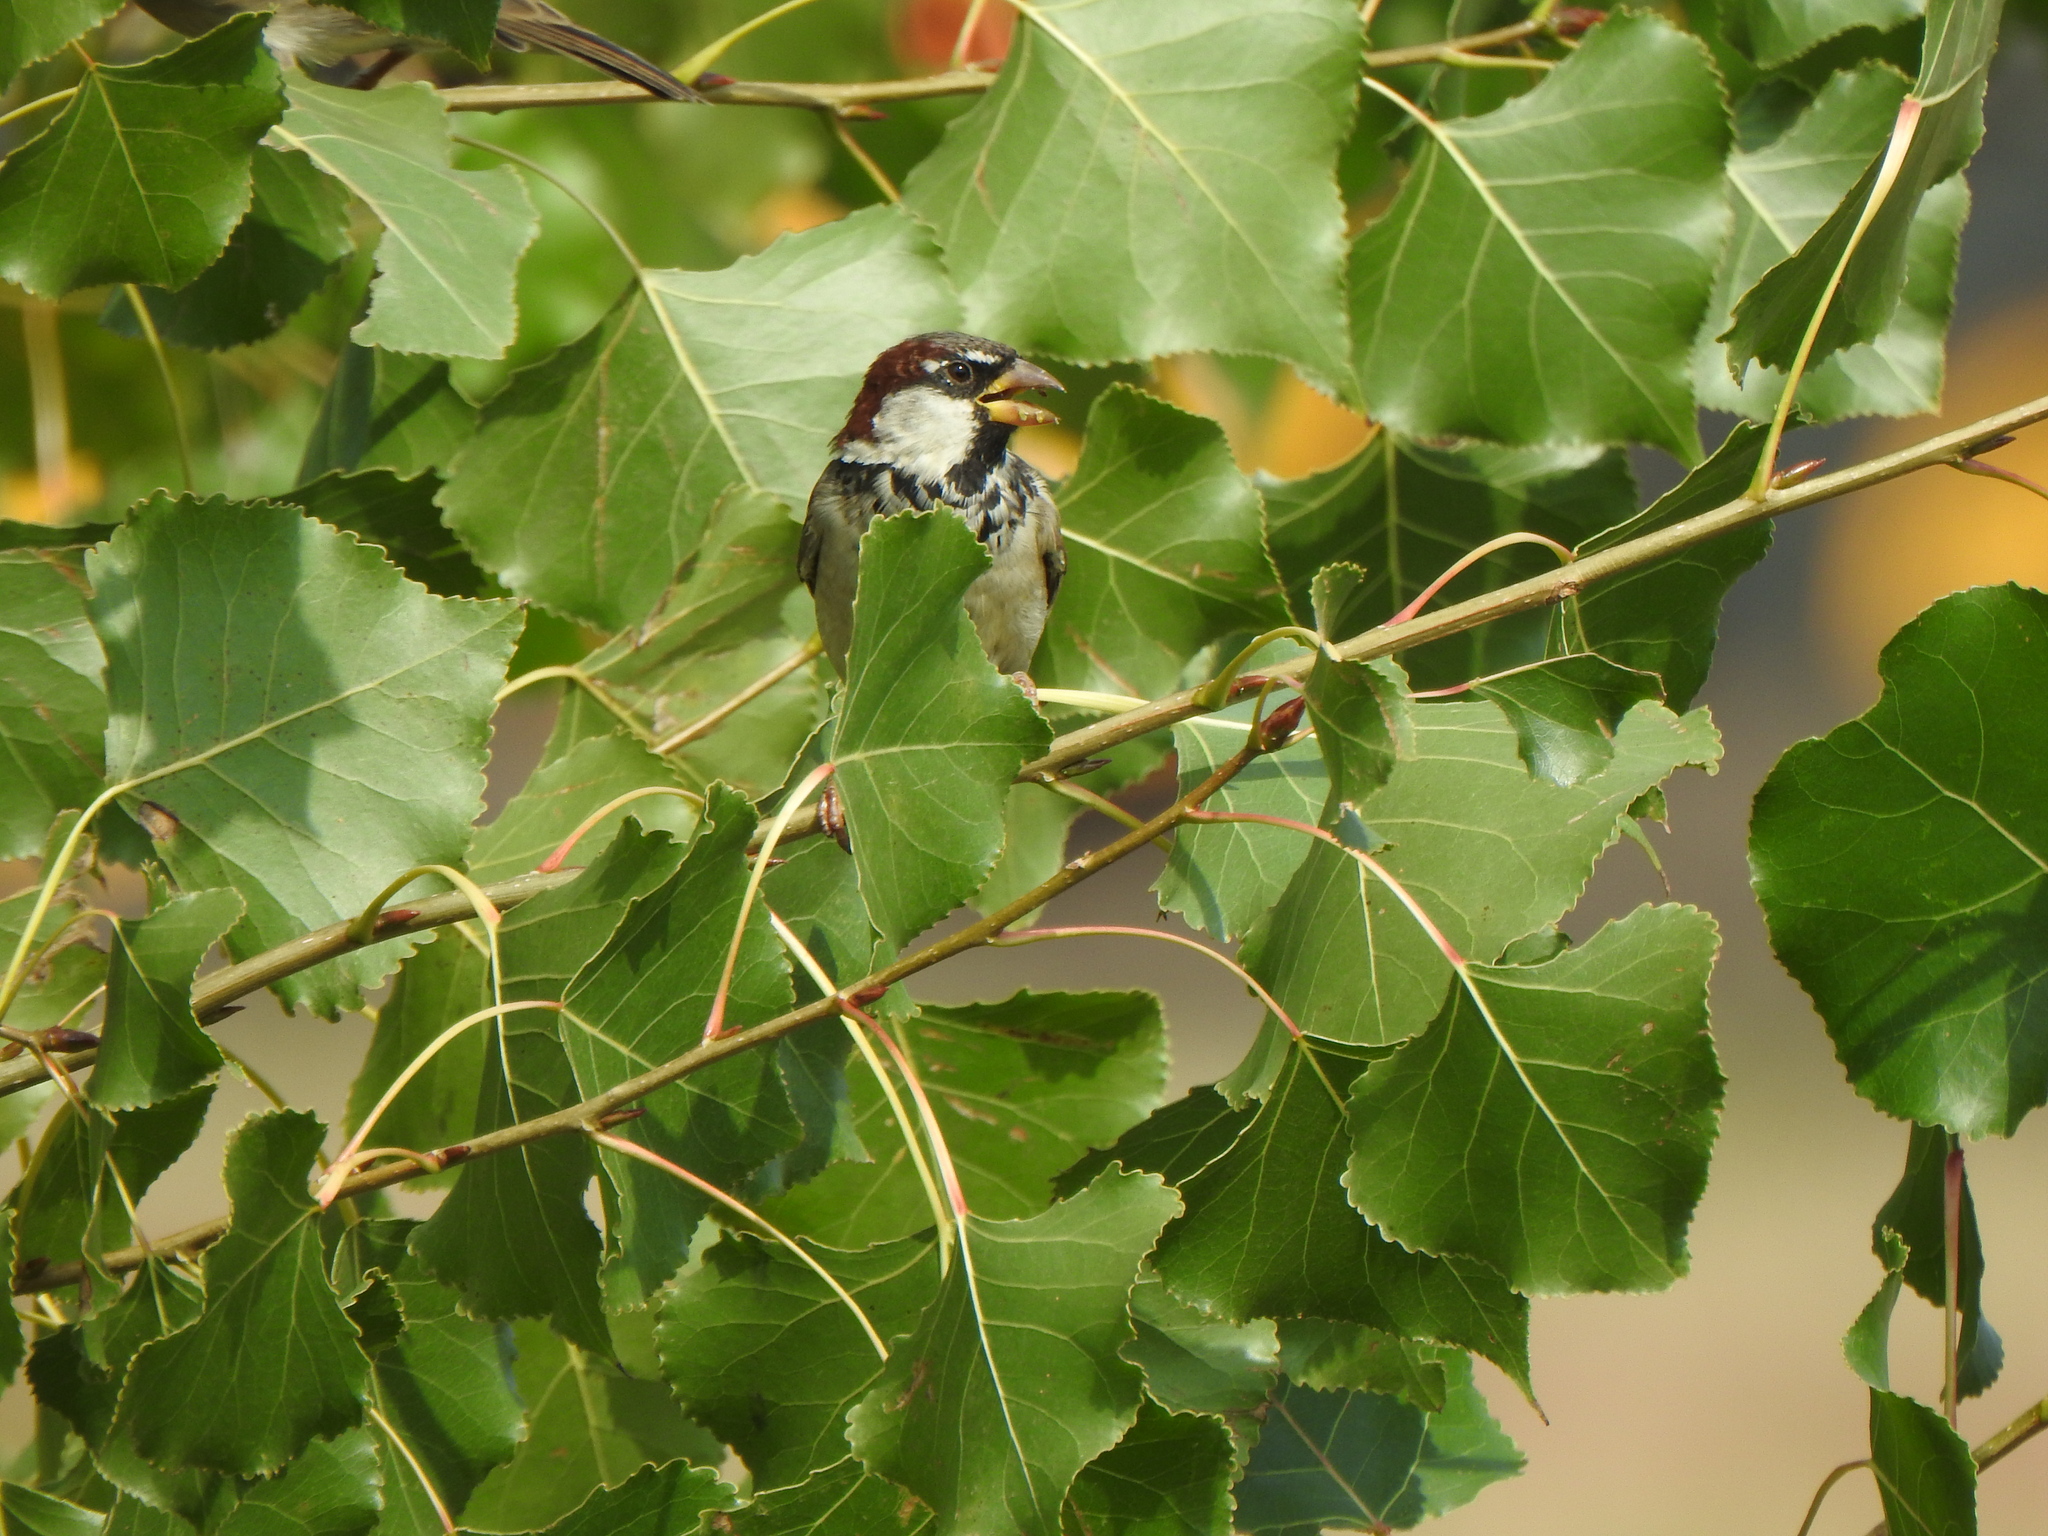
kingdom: Animalia
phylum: Chordata
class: Aves
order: Passeriformes
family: Passeridae
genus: Passer
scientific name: Passer domesticus
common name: House sparrow
